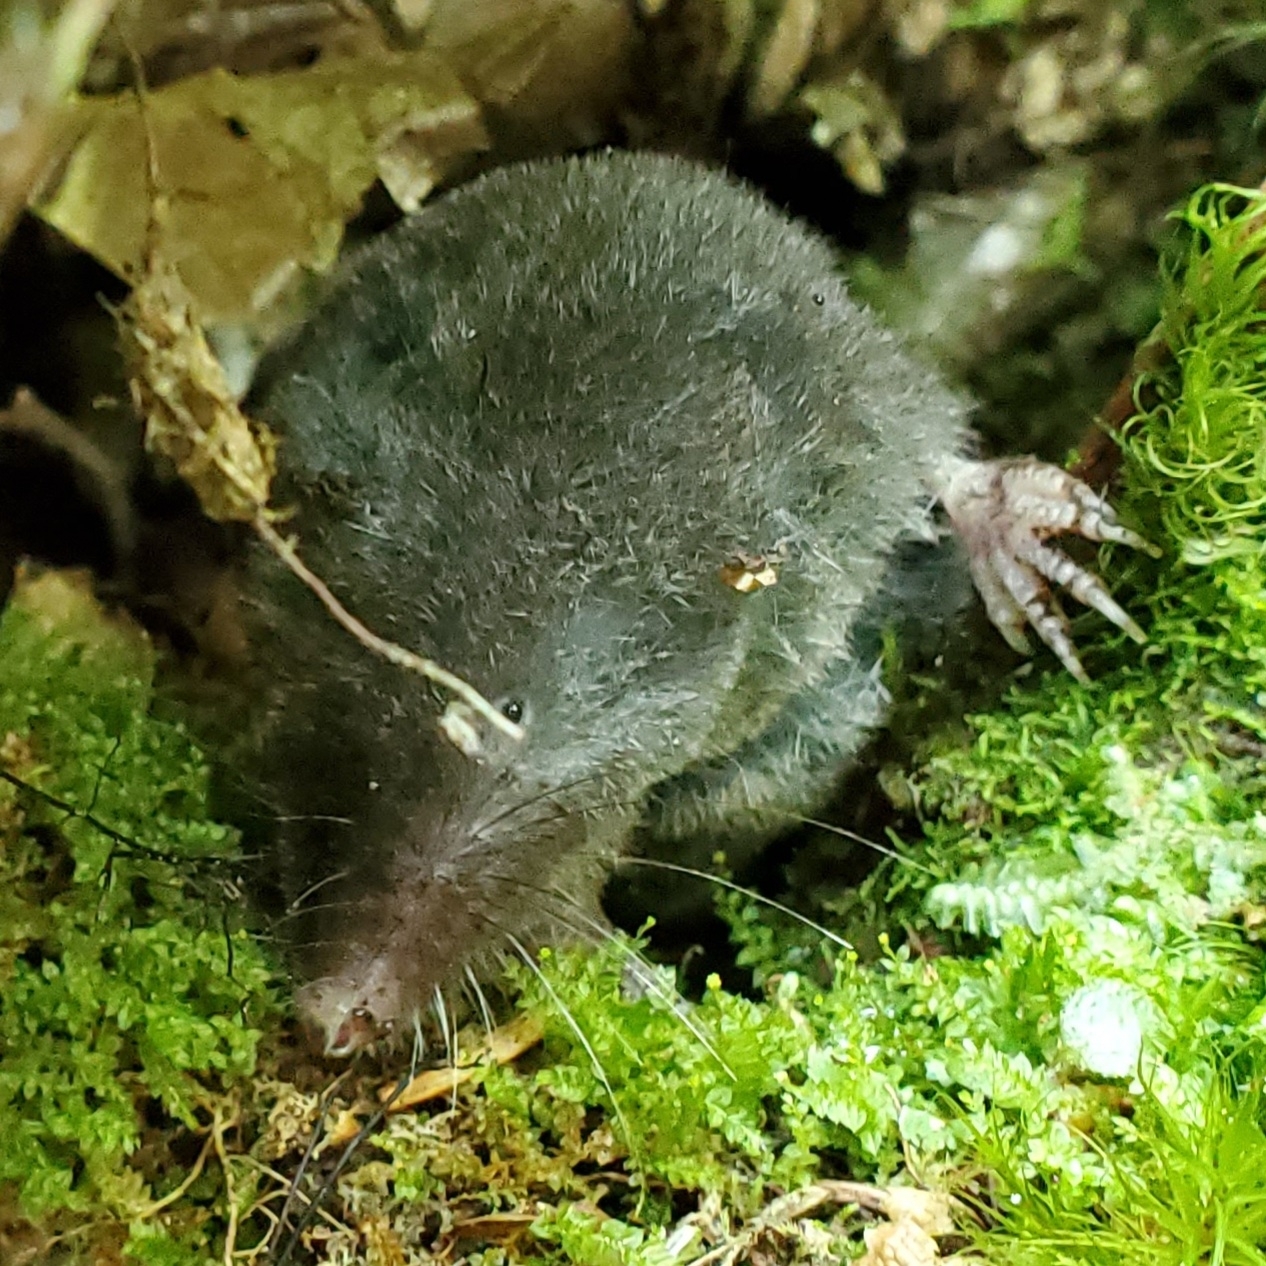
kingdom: Animalia
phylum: Chordata
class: Mammalia
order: Soricomorpha
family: Soricidae
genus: Blarina
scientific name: Blarina brevicauda
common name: Northern short-tailed shrew
